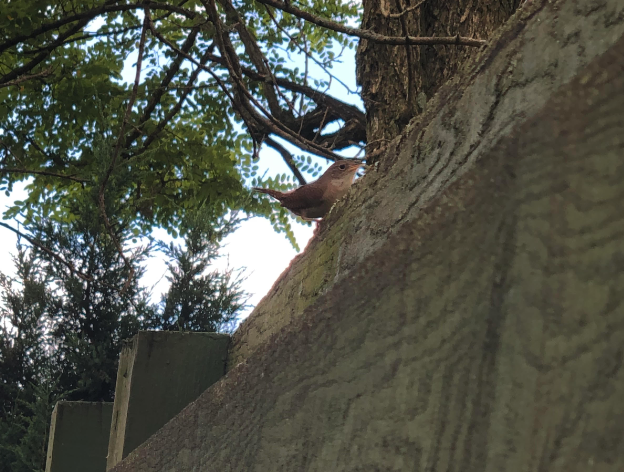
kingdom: Animalia
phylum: Chordata
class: Aves
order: Passeriformes
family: Troglodytidae
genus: Troglodytes
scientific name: Troglodytes aedon
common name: House wren
